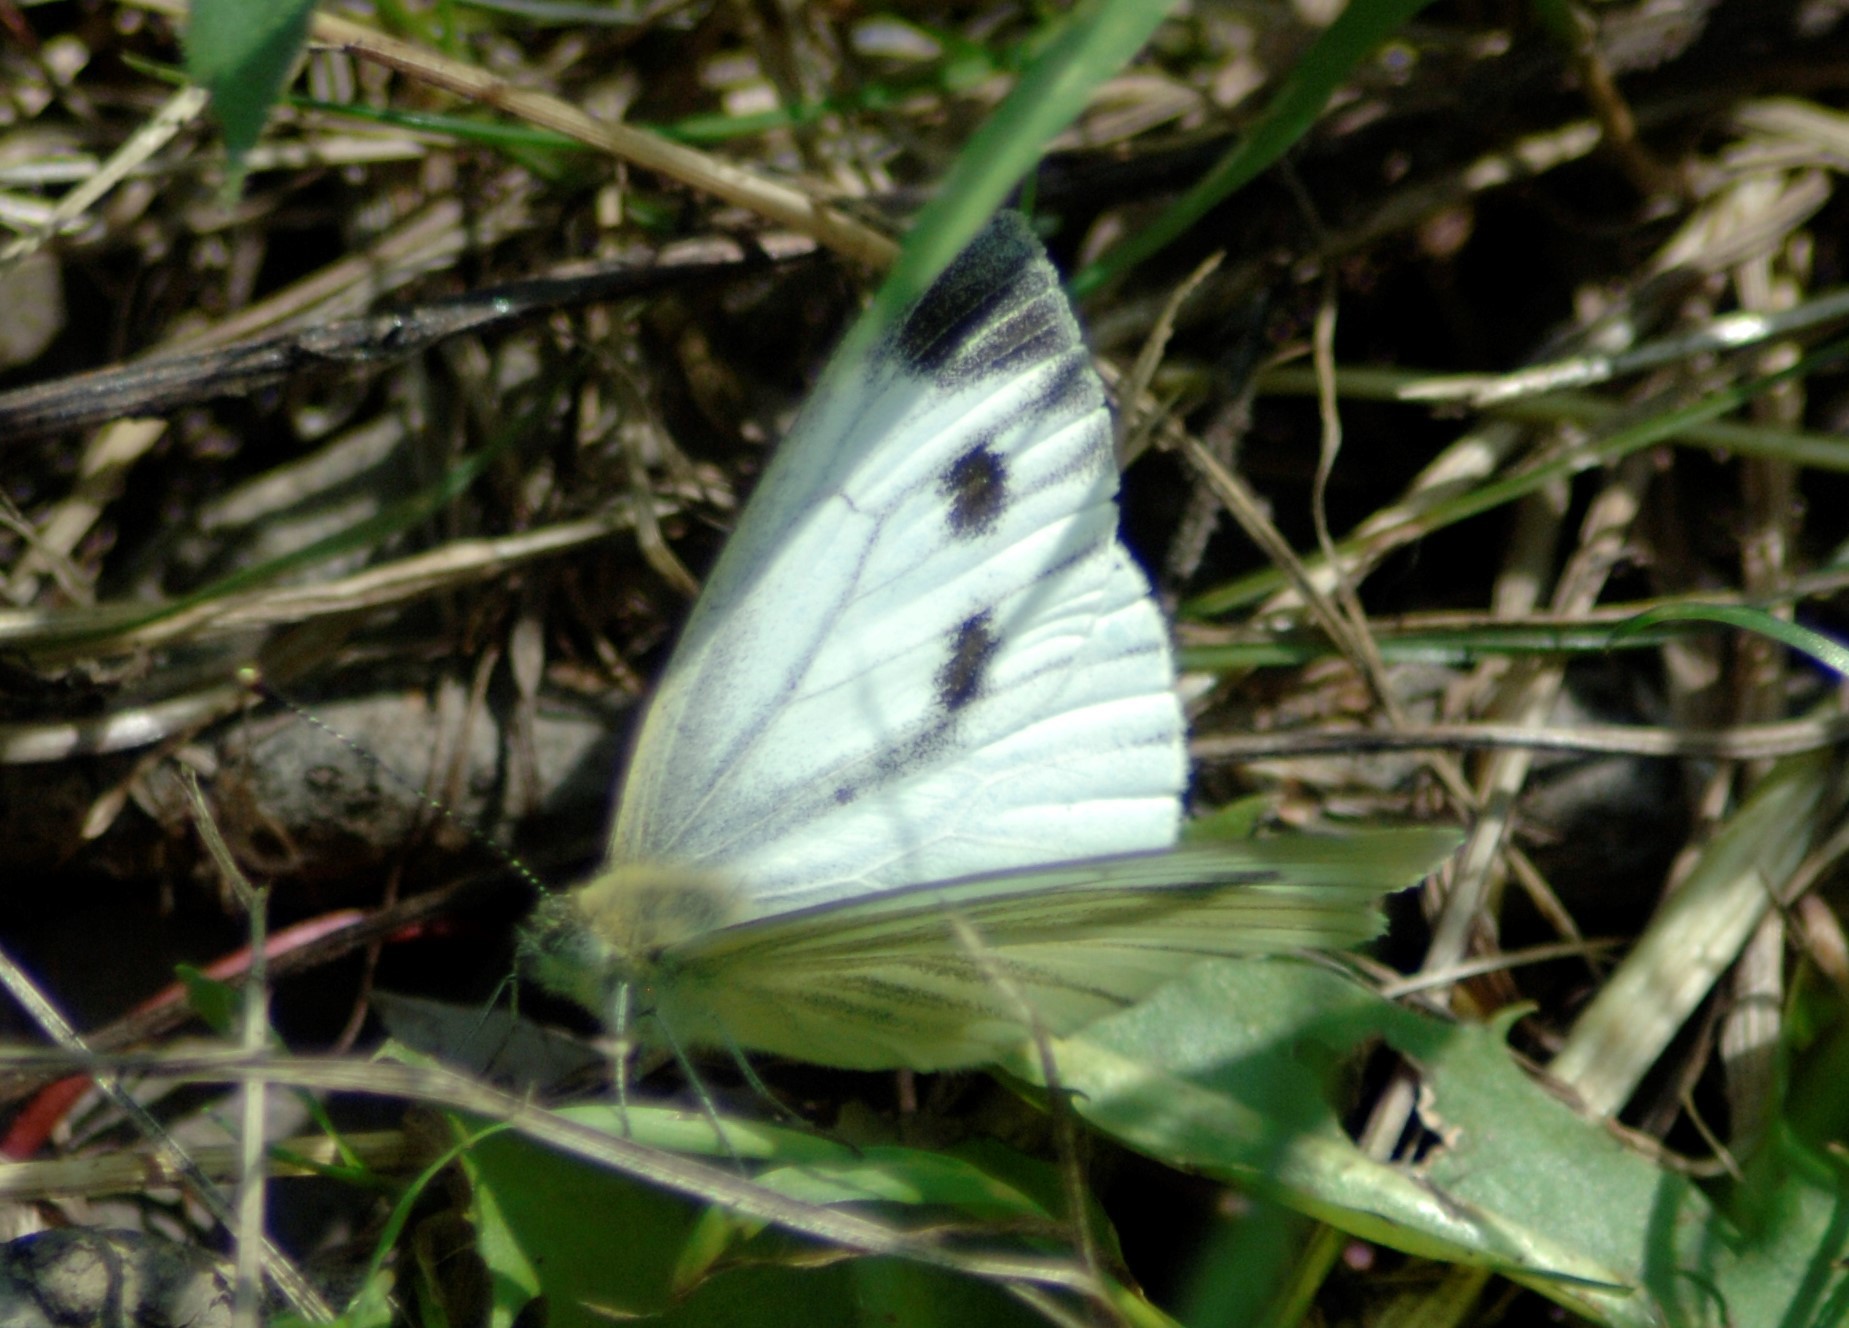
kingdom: Animalia
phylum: Arthropoda
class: Insecta
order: Lepidoptera
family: Pieridae
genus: Pieris
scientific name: Pieris napi
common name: Green-veined white
